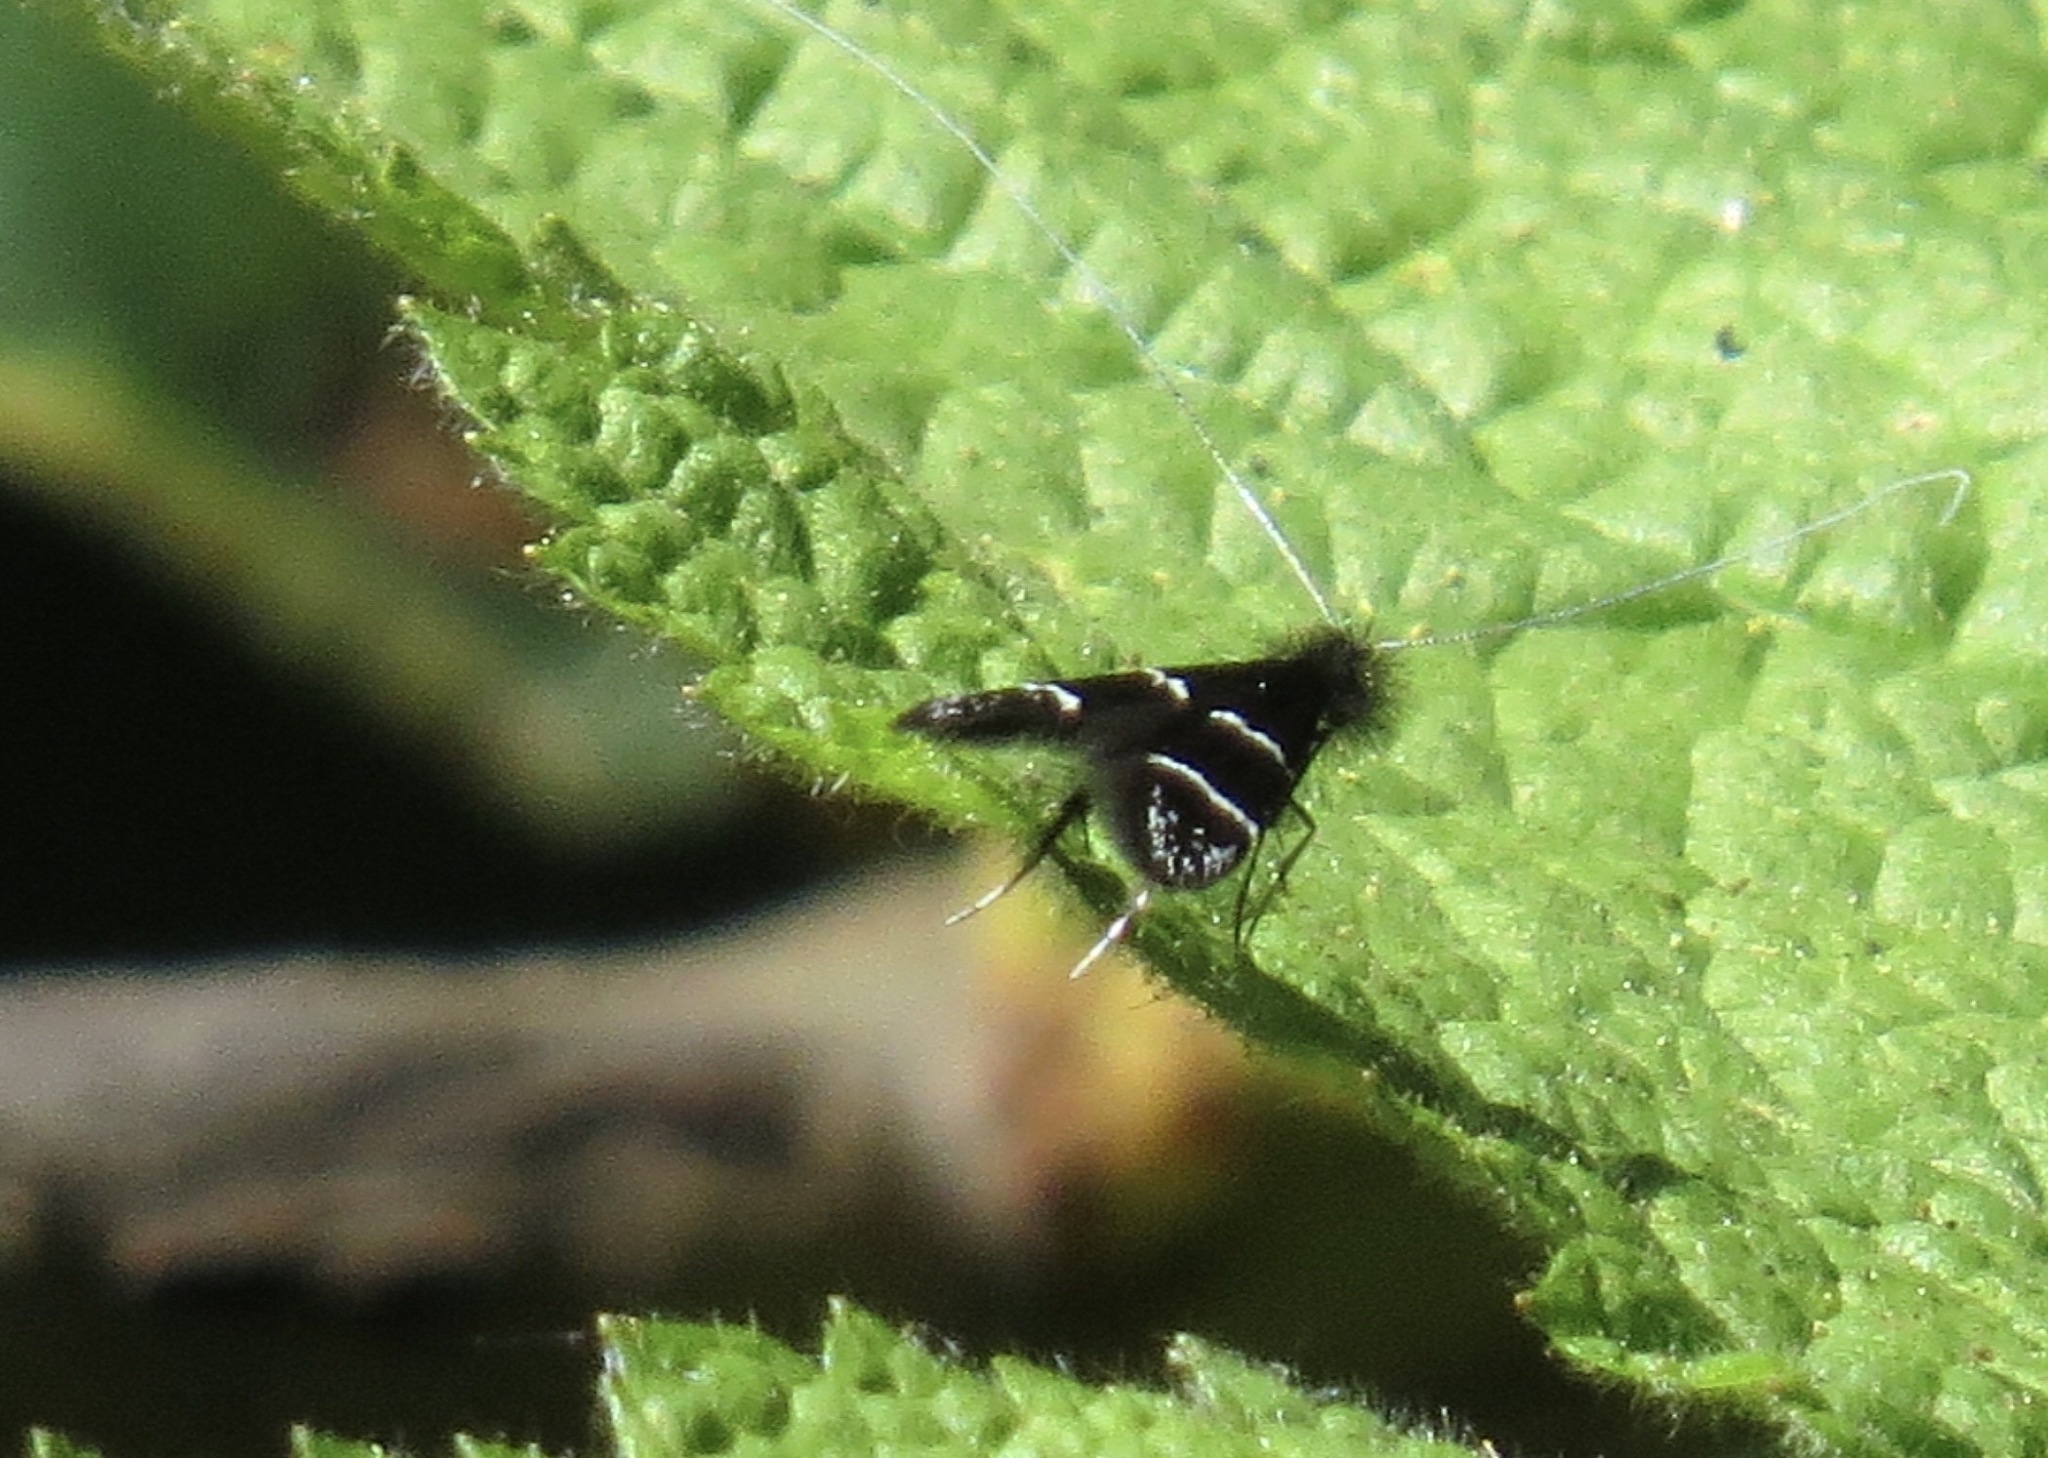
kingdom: Animalia
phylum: Arthropoda
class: Insecta
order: Lepidoptera
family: Adelidae
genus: Adela
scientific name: Adela septentrionella
